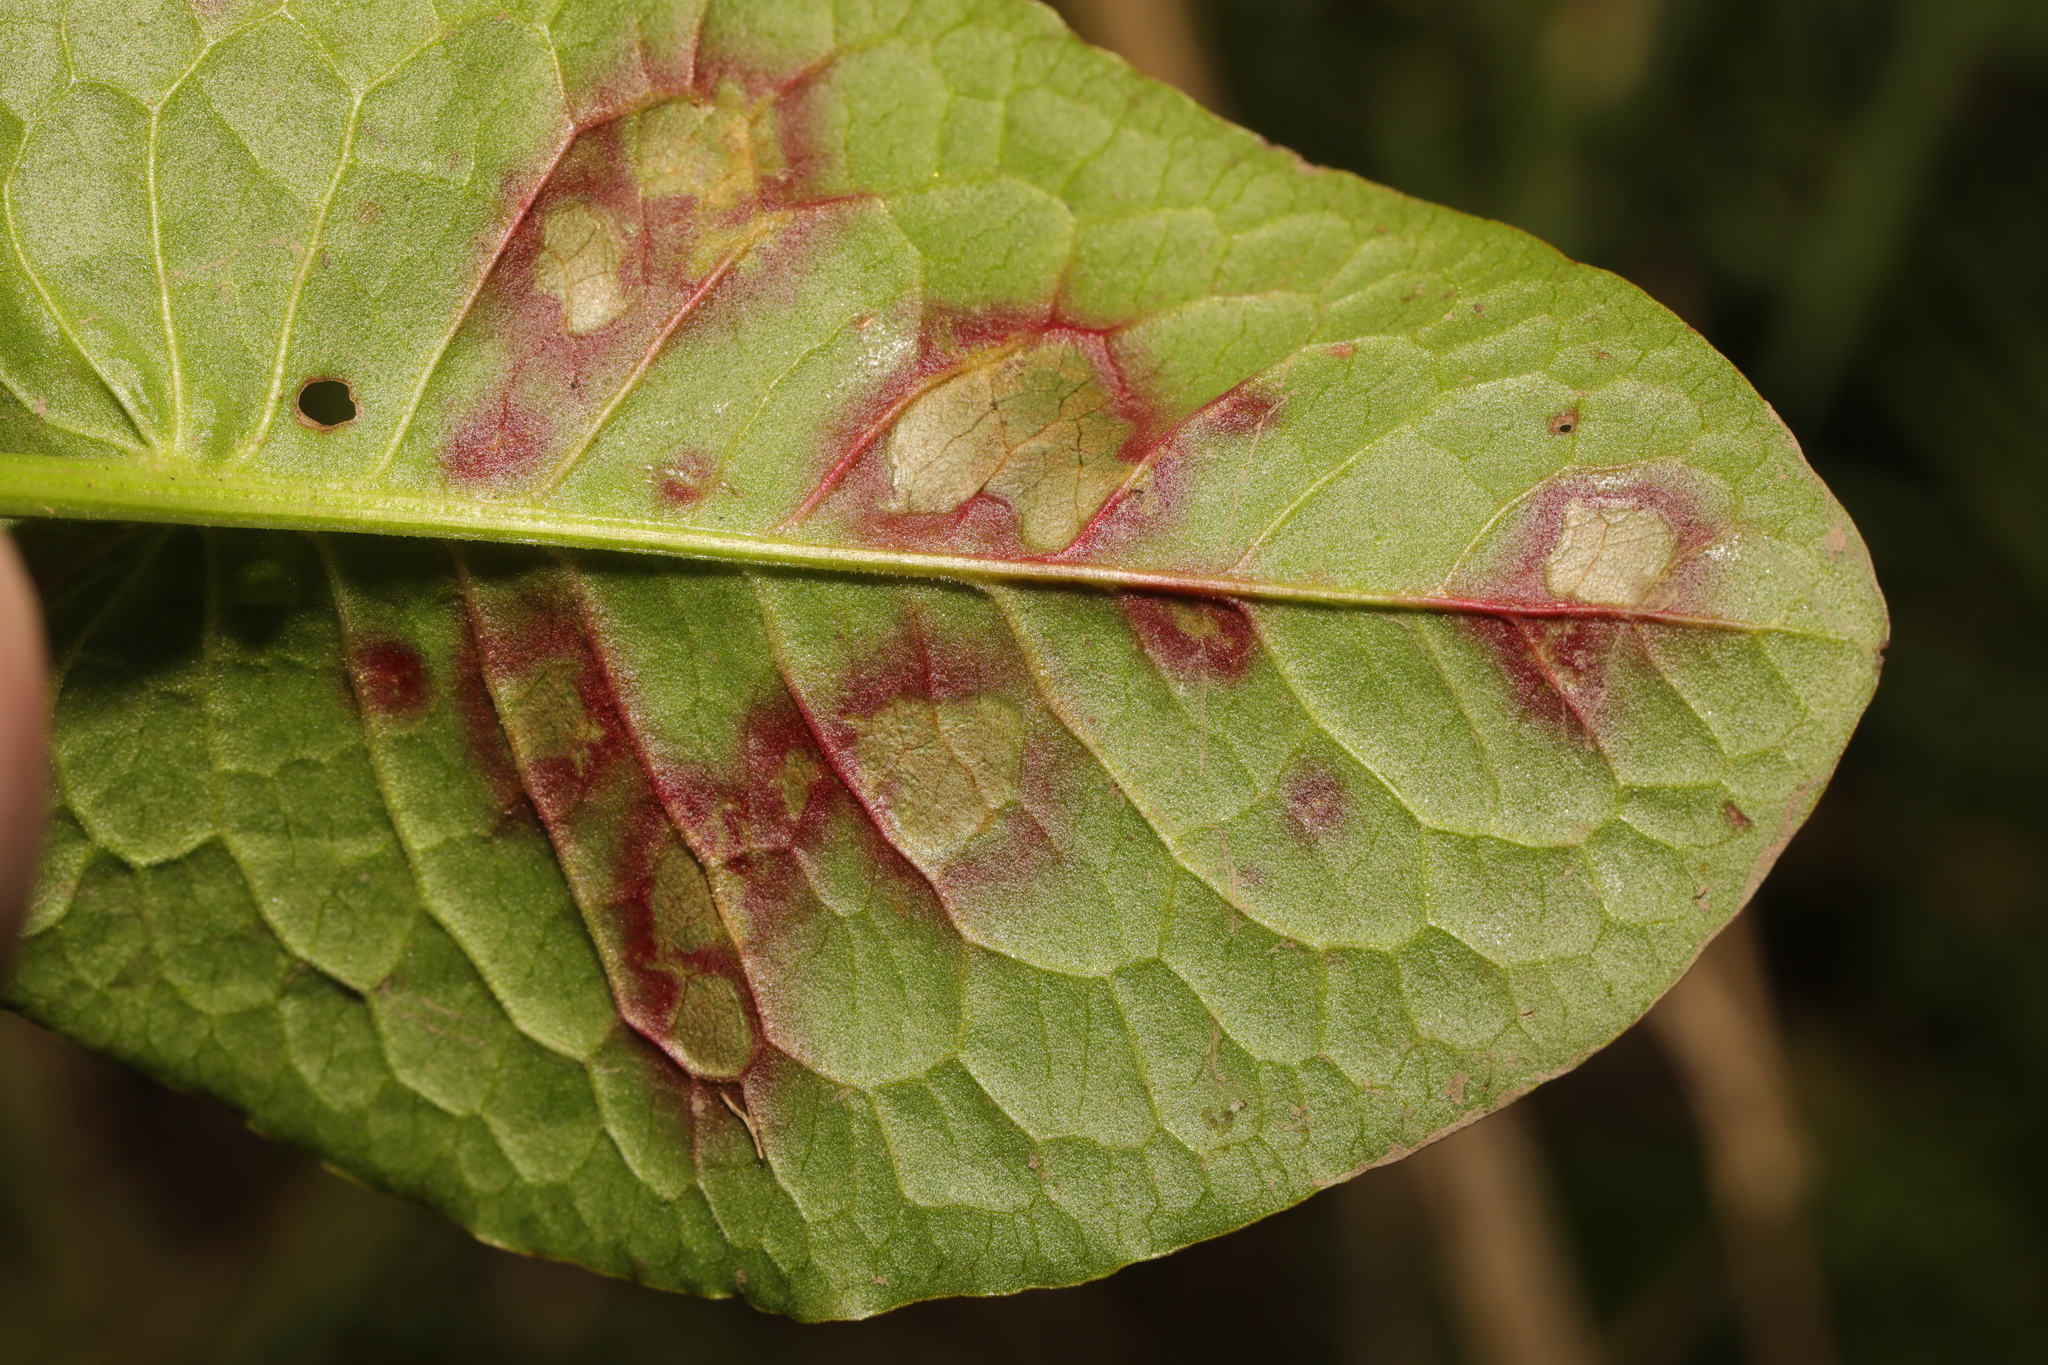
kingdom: Fungi
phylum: Ascomycota
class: Dothideomycetes
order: Mycosphaerellales
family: Mycosphaerellaceae
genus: Ramularia
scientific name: Ramularia rubella
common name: Red dock spot
